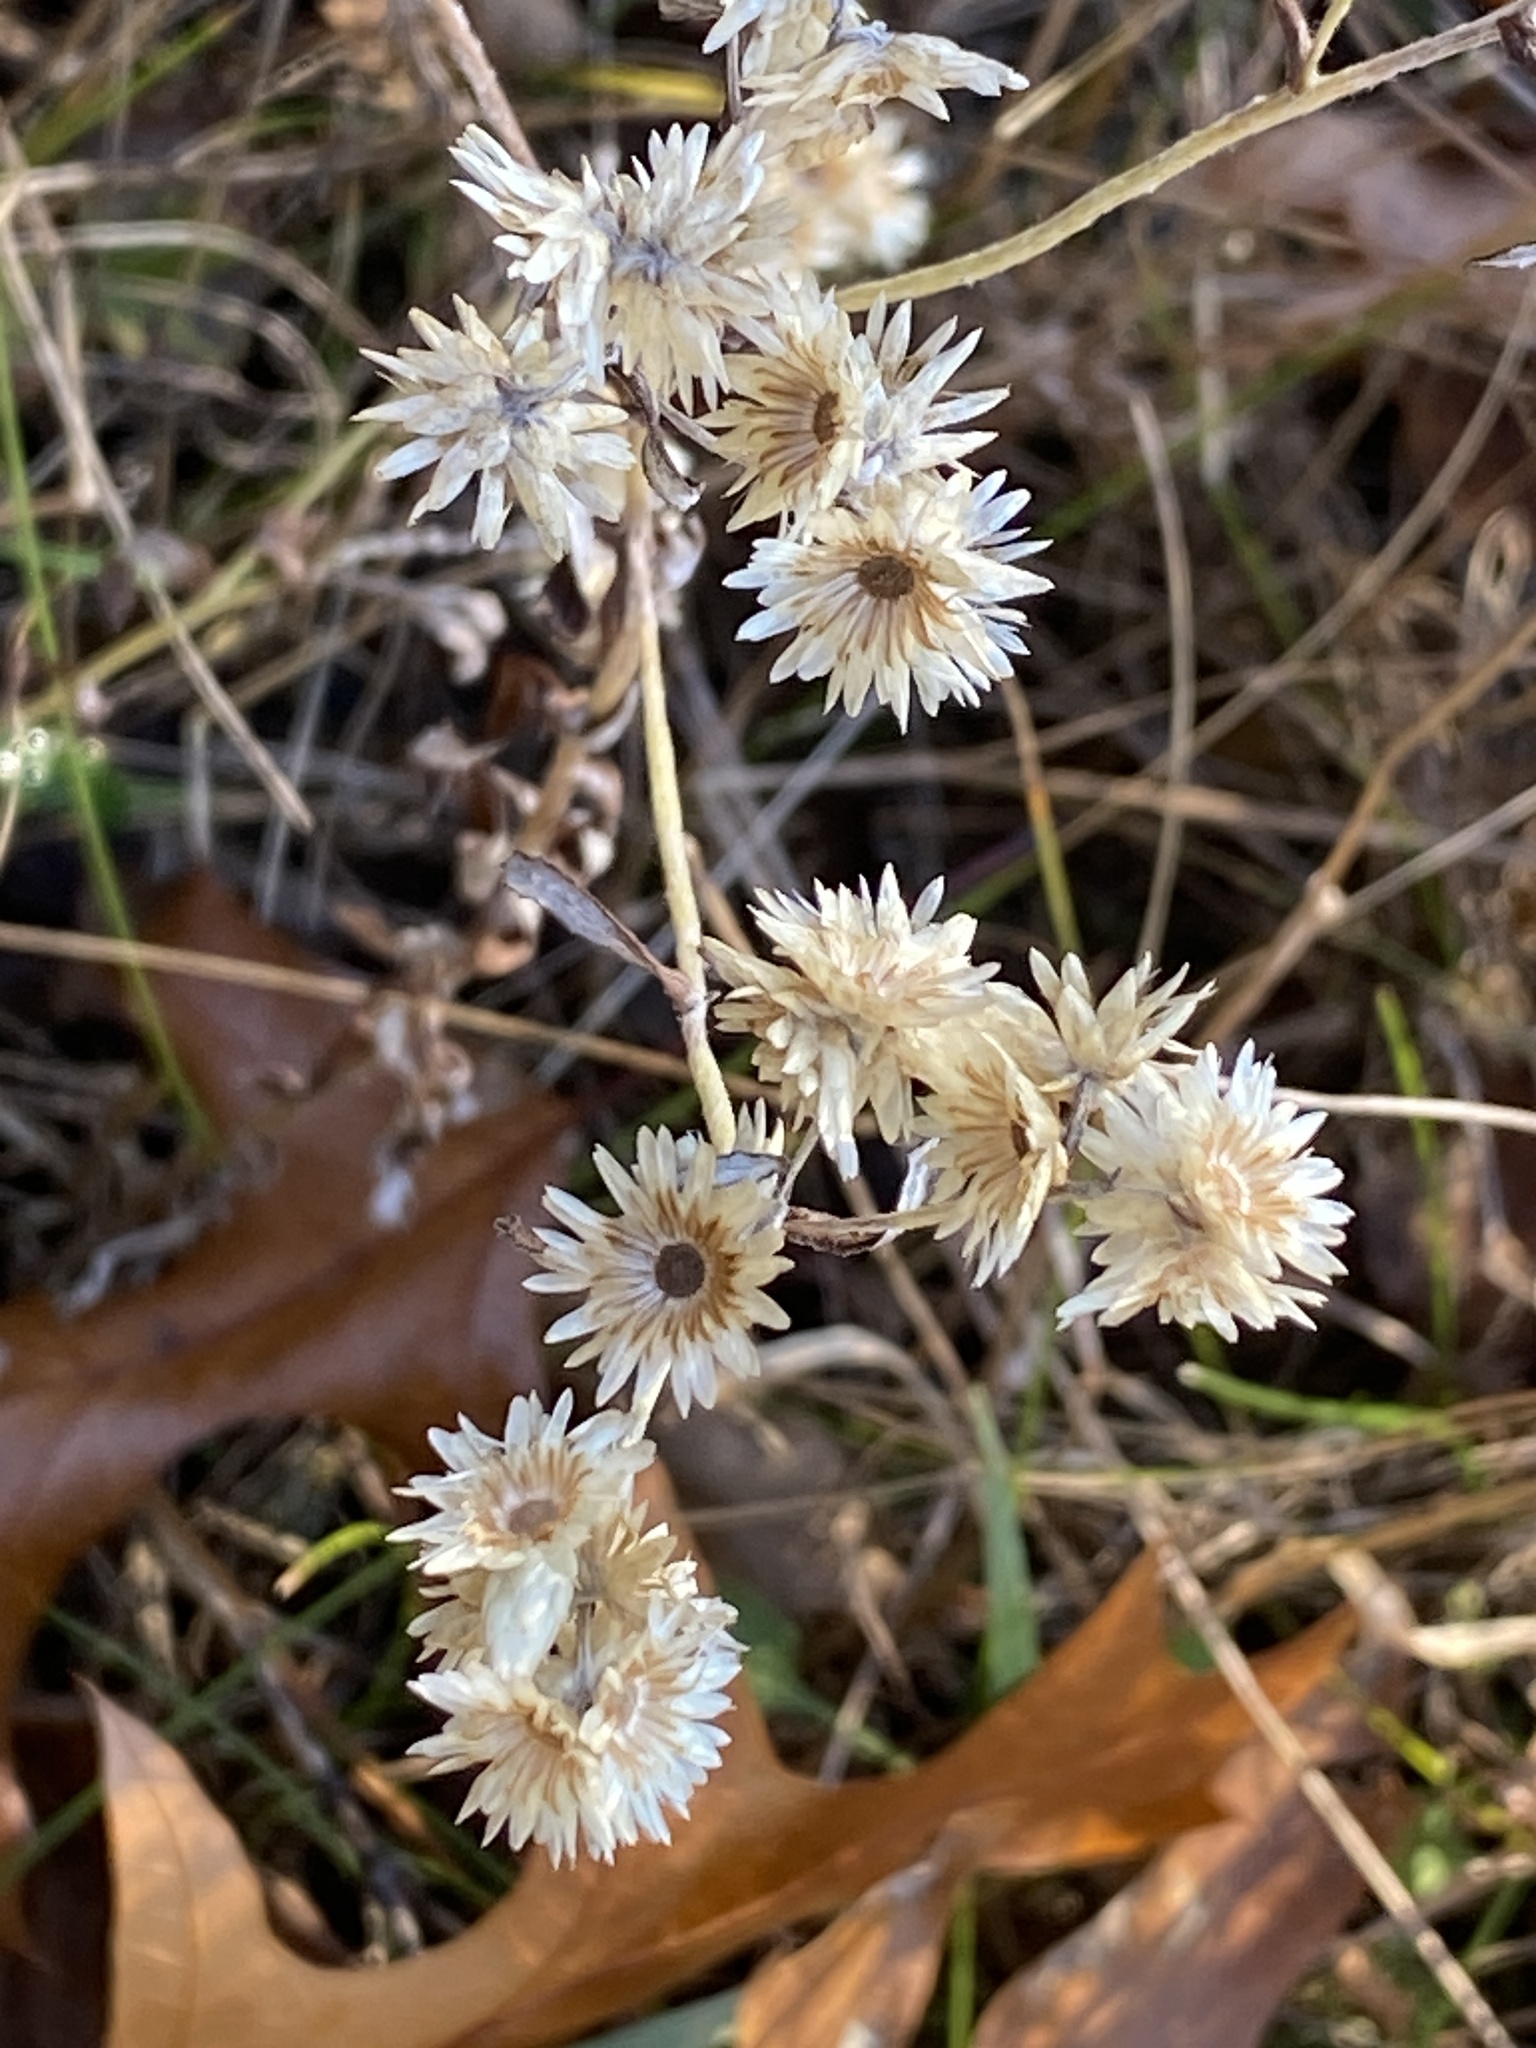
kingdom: Plantae
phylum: Tracheophyta
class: Magnoliopsida
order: Asterales
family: Asteraceae
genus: Pseudognaphalium
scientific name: Pseudognaphalium obtusifolium
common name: Eastern rabbit-tobacco
